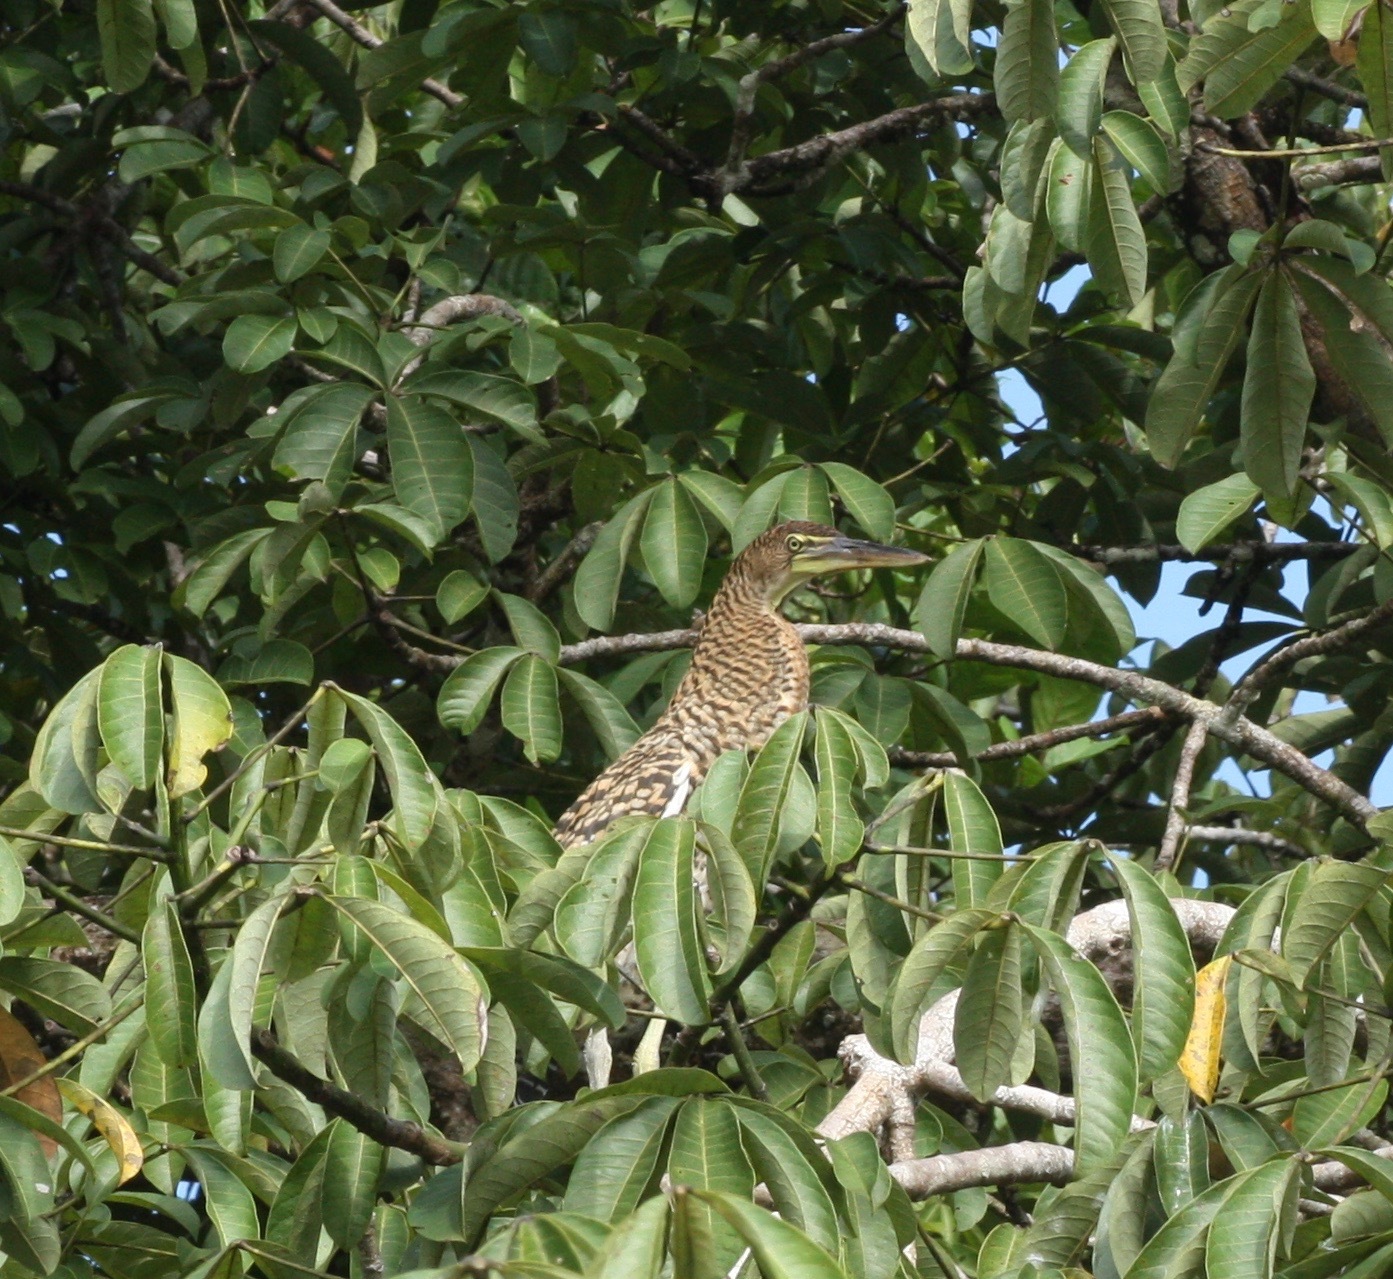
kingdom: Animalia
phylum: Chordata
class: Aves
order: Pelecaniformes
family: Ardeidae
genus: Tigrisoma
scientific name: Tigrisoma mexicanum
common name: Bare-throated tiger-heron
